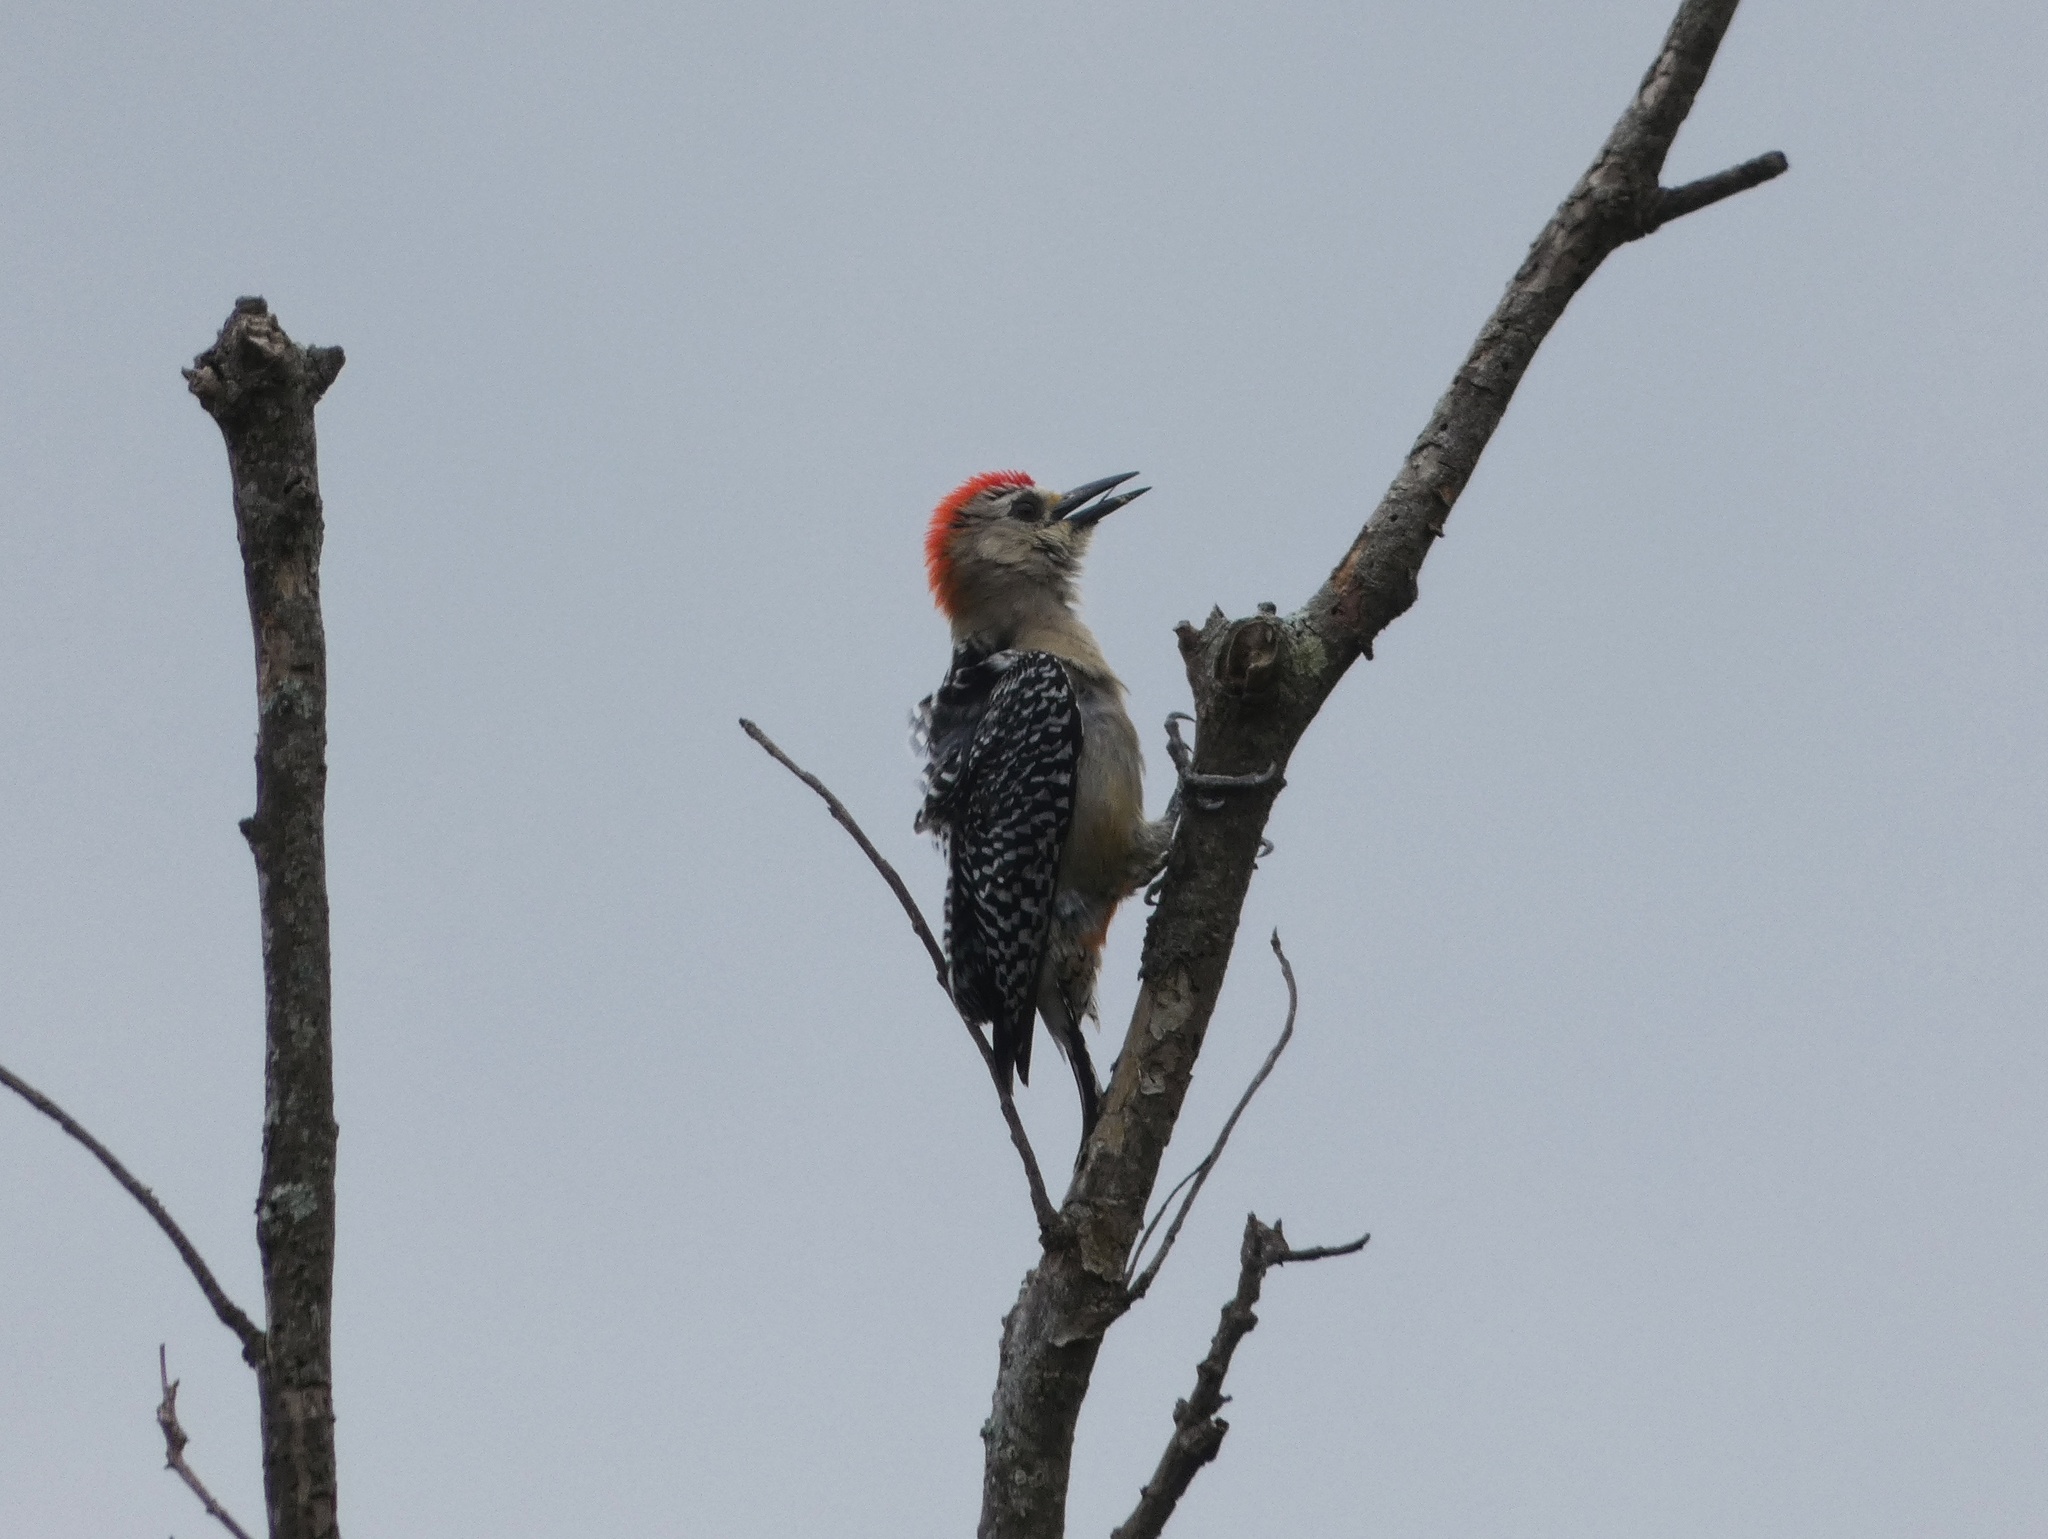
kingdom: Animalia
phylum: Chordata
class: Aves
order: Piciformes
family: Picidae
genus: Melanerpes
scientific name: Melanerpes rubricapillus
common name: Red-crowned woodpecker
